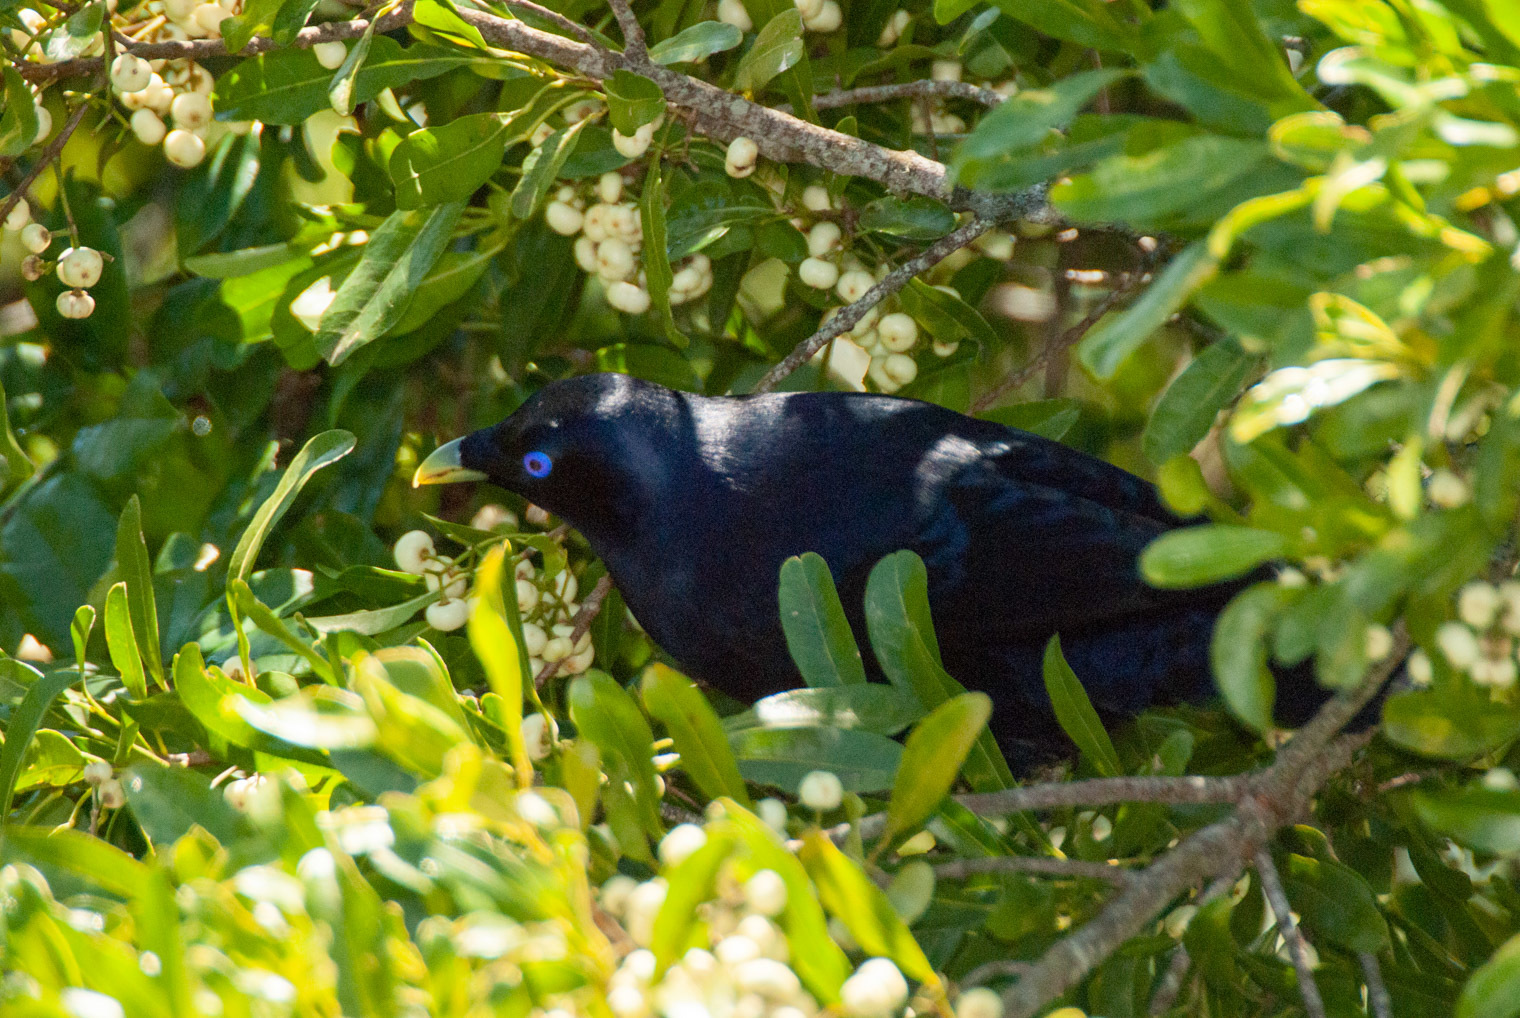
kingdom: Animalia
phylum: Chordata
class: Aves
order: Passeriformes
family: Ptilonorhynchidae
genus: Ptilonorhynchus
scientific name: Ptilonorhynchus violaceus
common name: Satin bowerbird
